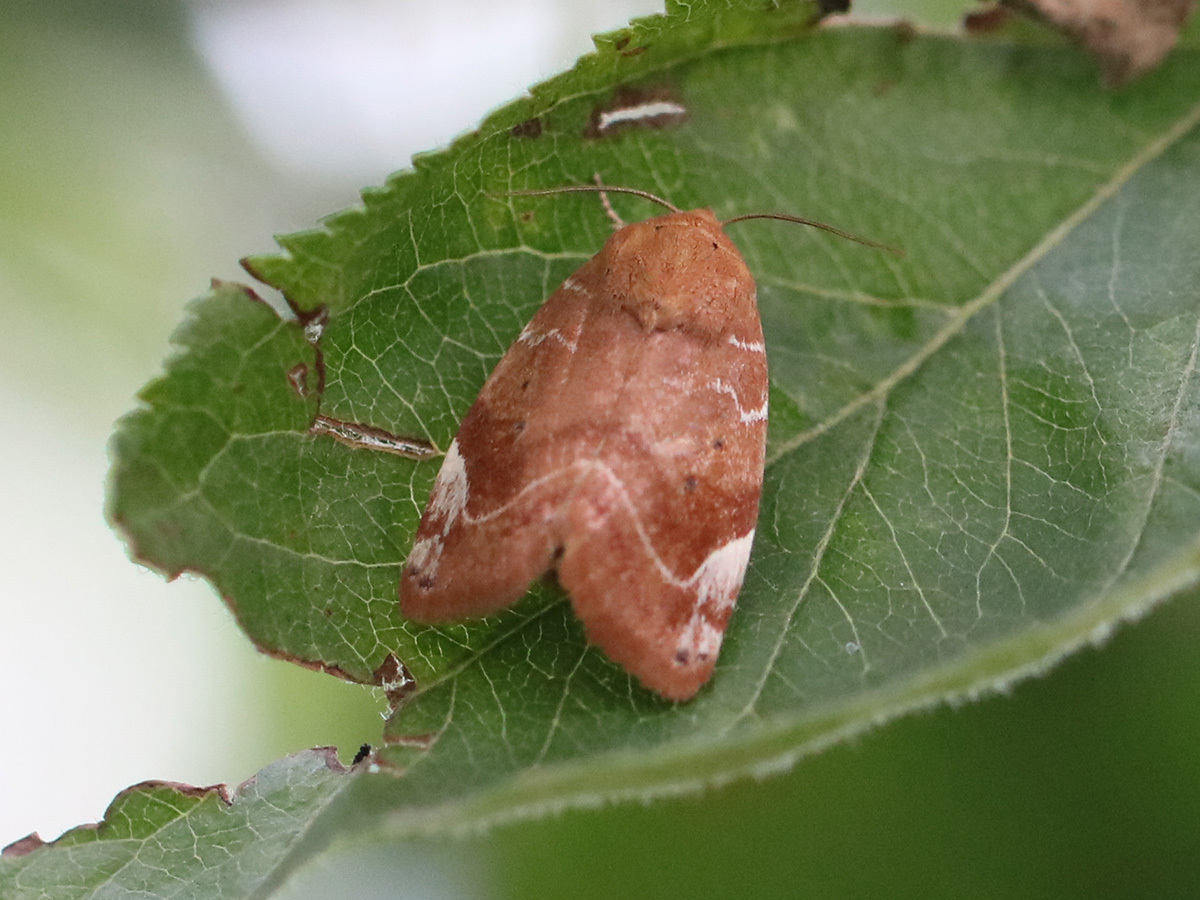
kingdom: Animalia
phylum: Arthropoda
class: Insecta
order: Lepidoptera
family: Noctuidae
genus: Cosmia
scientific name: Cosmia affinis
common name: Lesser-spotted pinion
